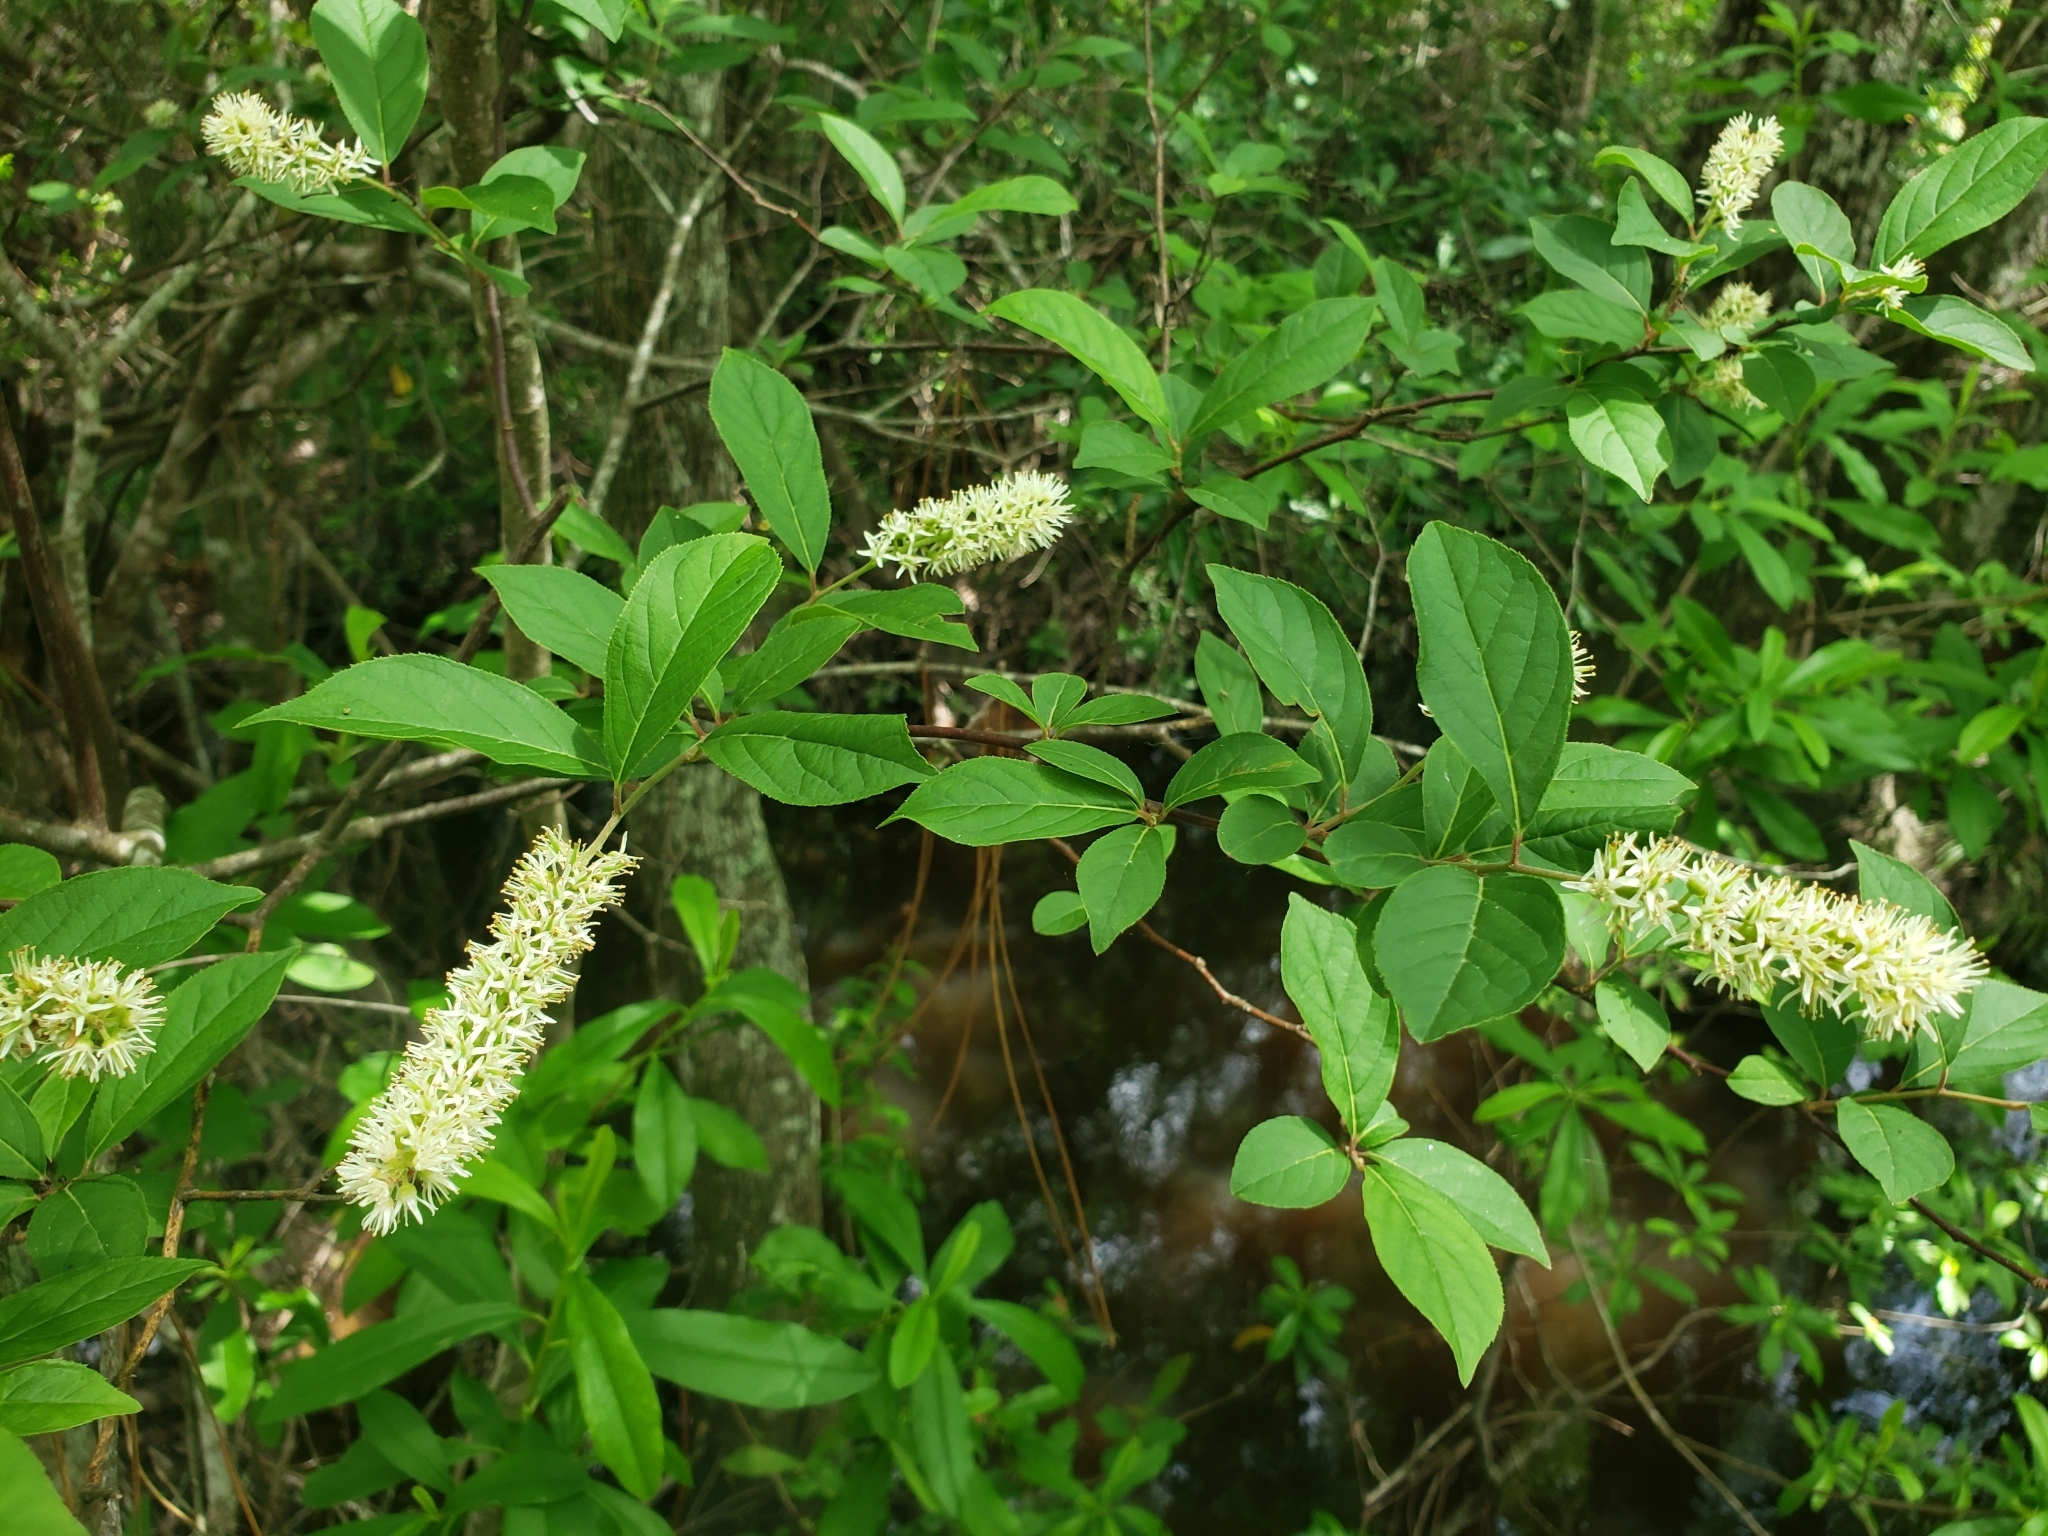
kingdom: Plantae
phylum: Tracheophyta
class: Magnoliopsida
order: Saxifragales
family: Iteaceae
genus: Itea
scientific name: Itea virginica
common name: Sweetspire
